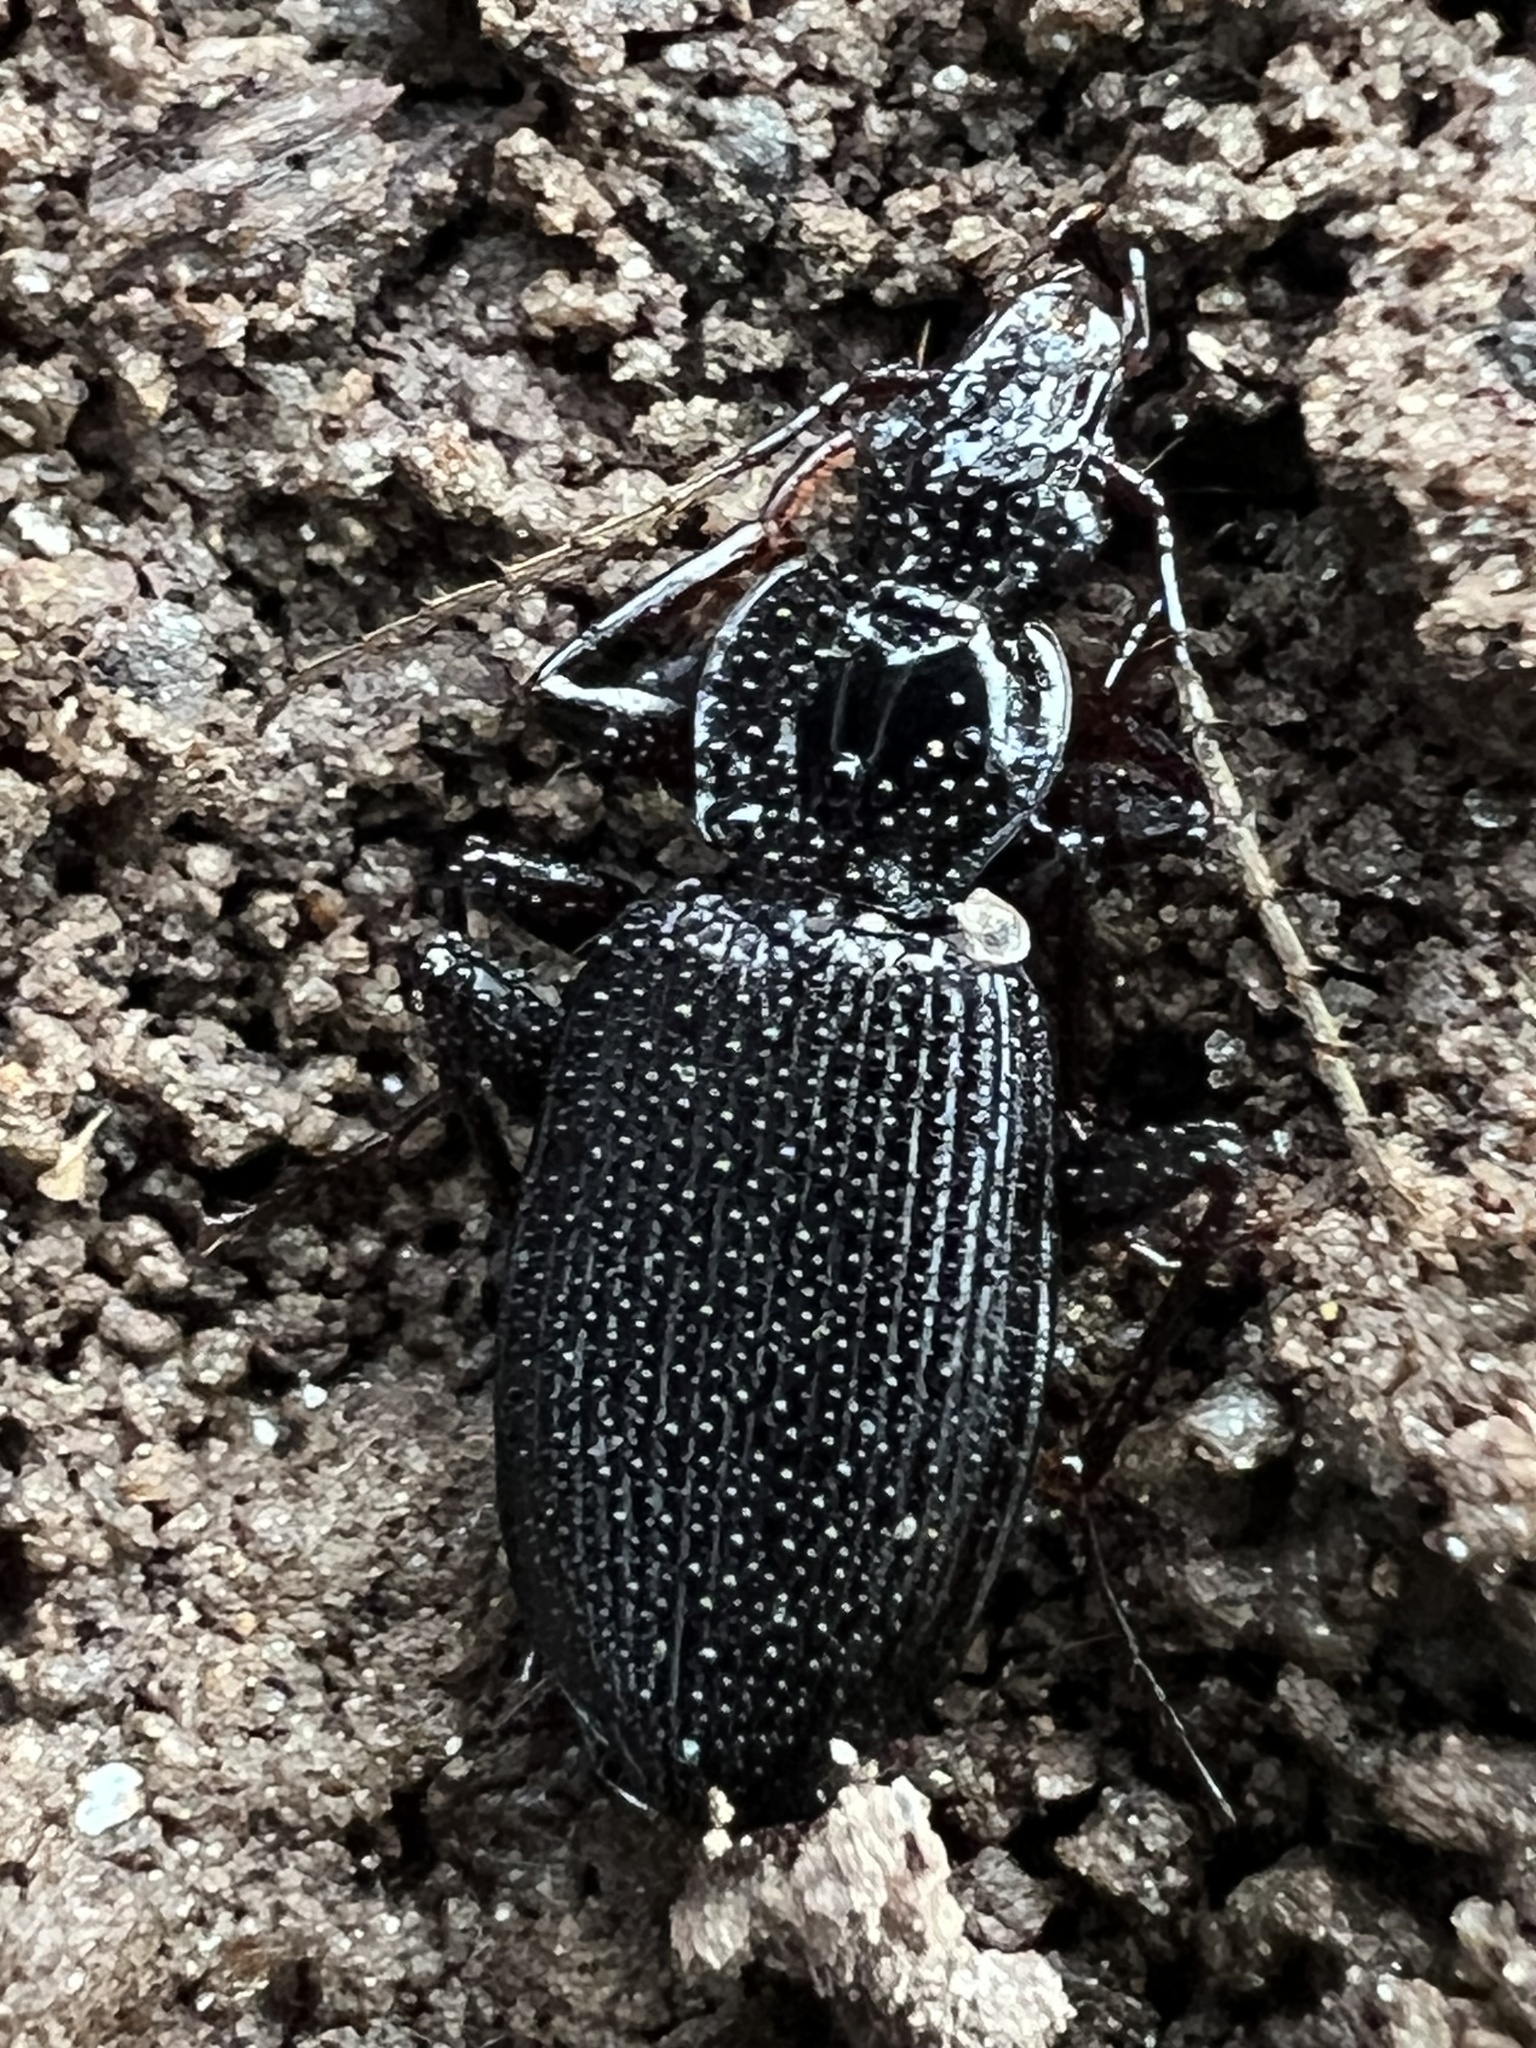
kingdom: Animalia
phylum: Arthropoda
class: Insecta
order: Coleoptera
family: Carabidae
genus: Platynus
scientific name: Platynus decentis
